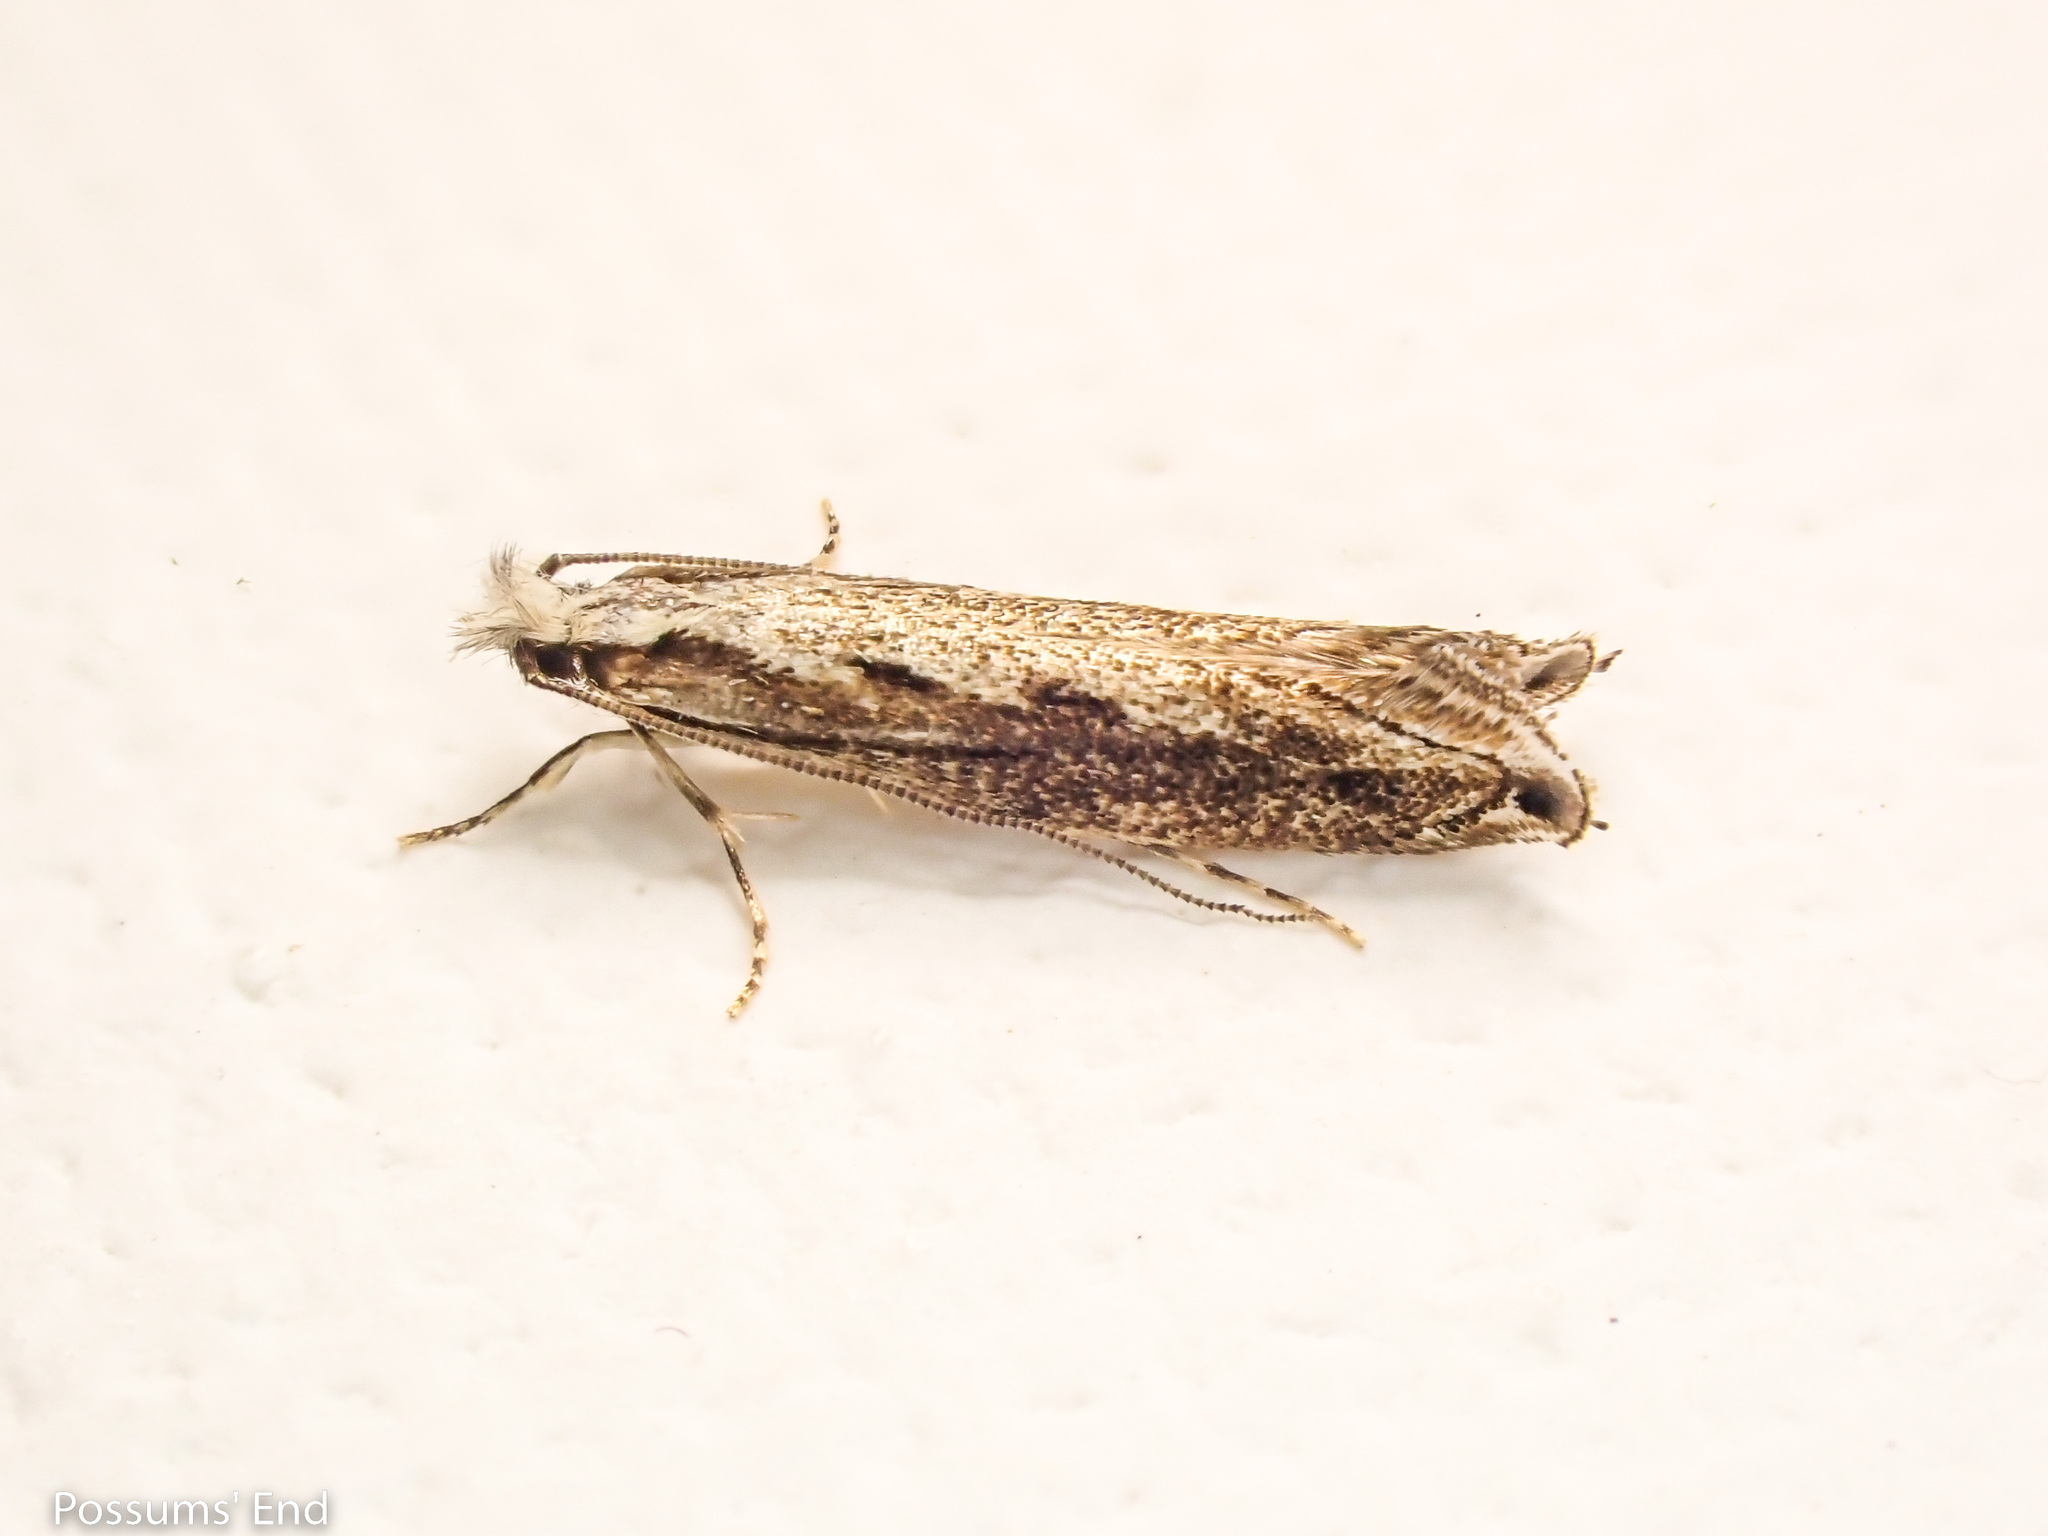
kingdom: Animalia
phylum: Arthropoda
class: Insecta
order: Lepidoptera
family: Tineidae
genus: Erechthias
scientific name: Erechthias fulguritella
